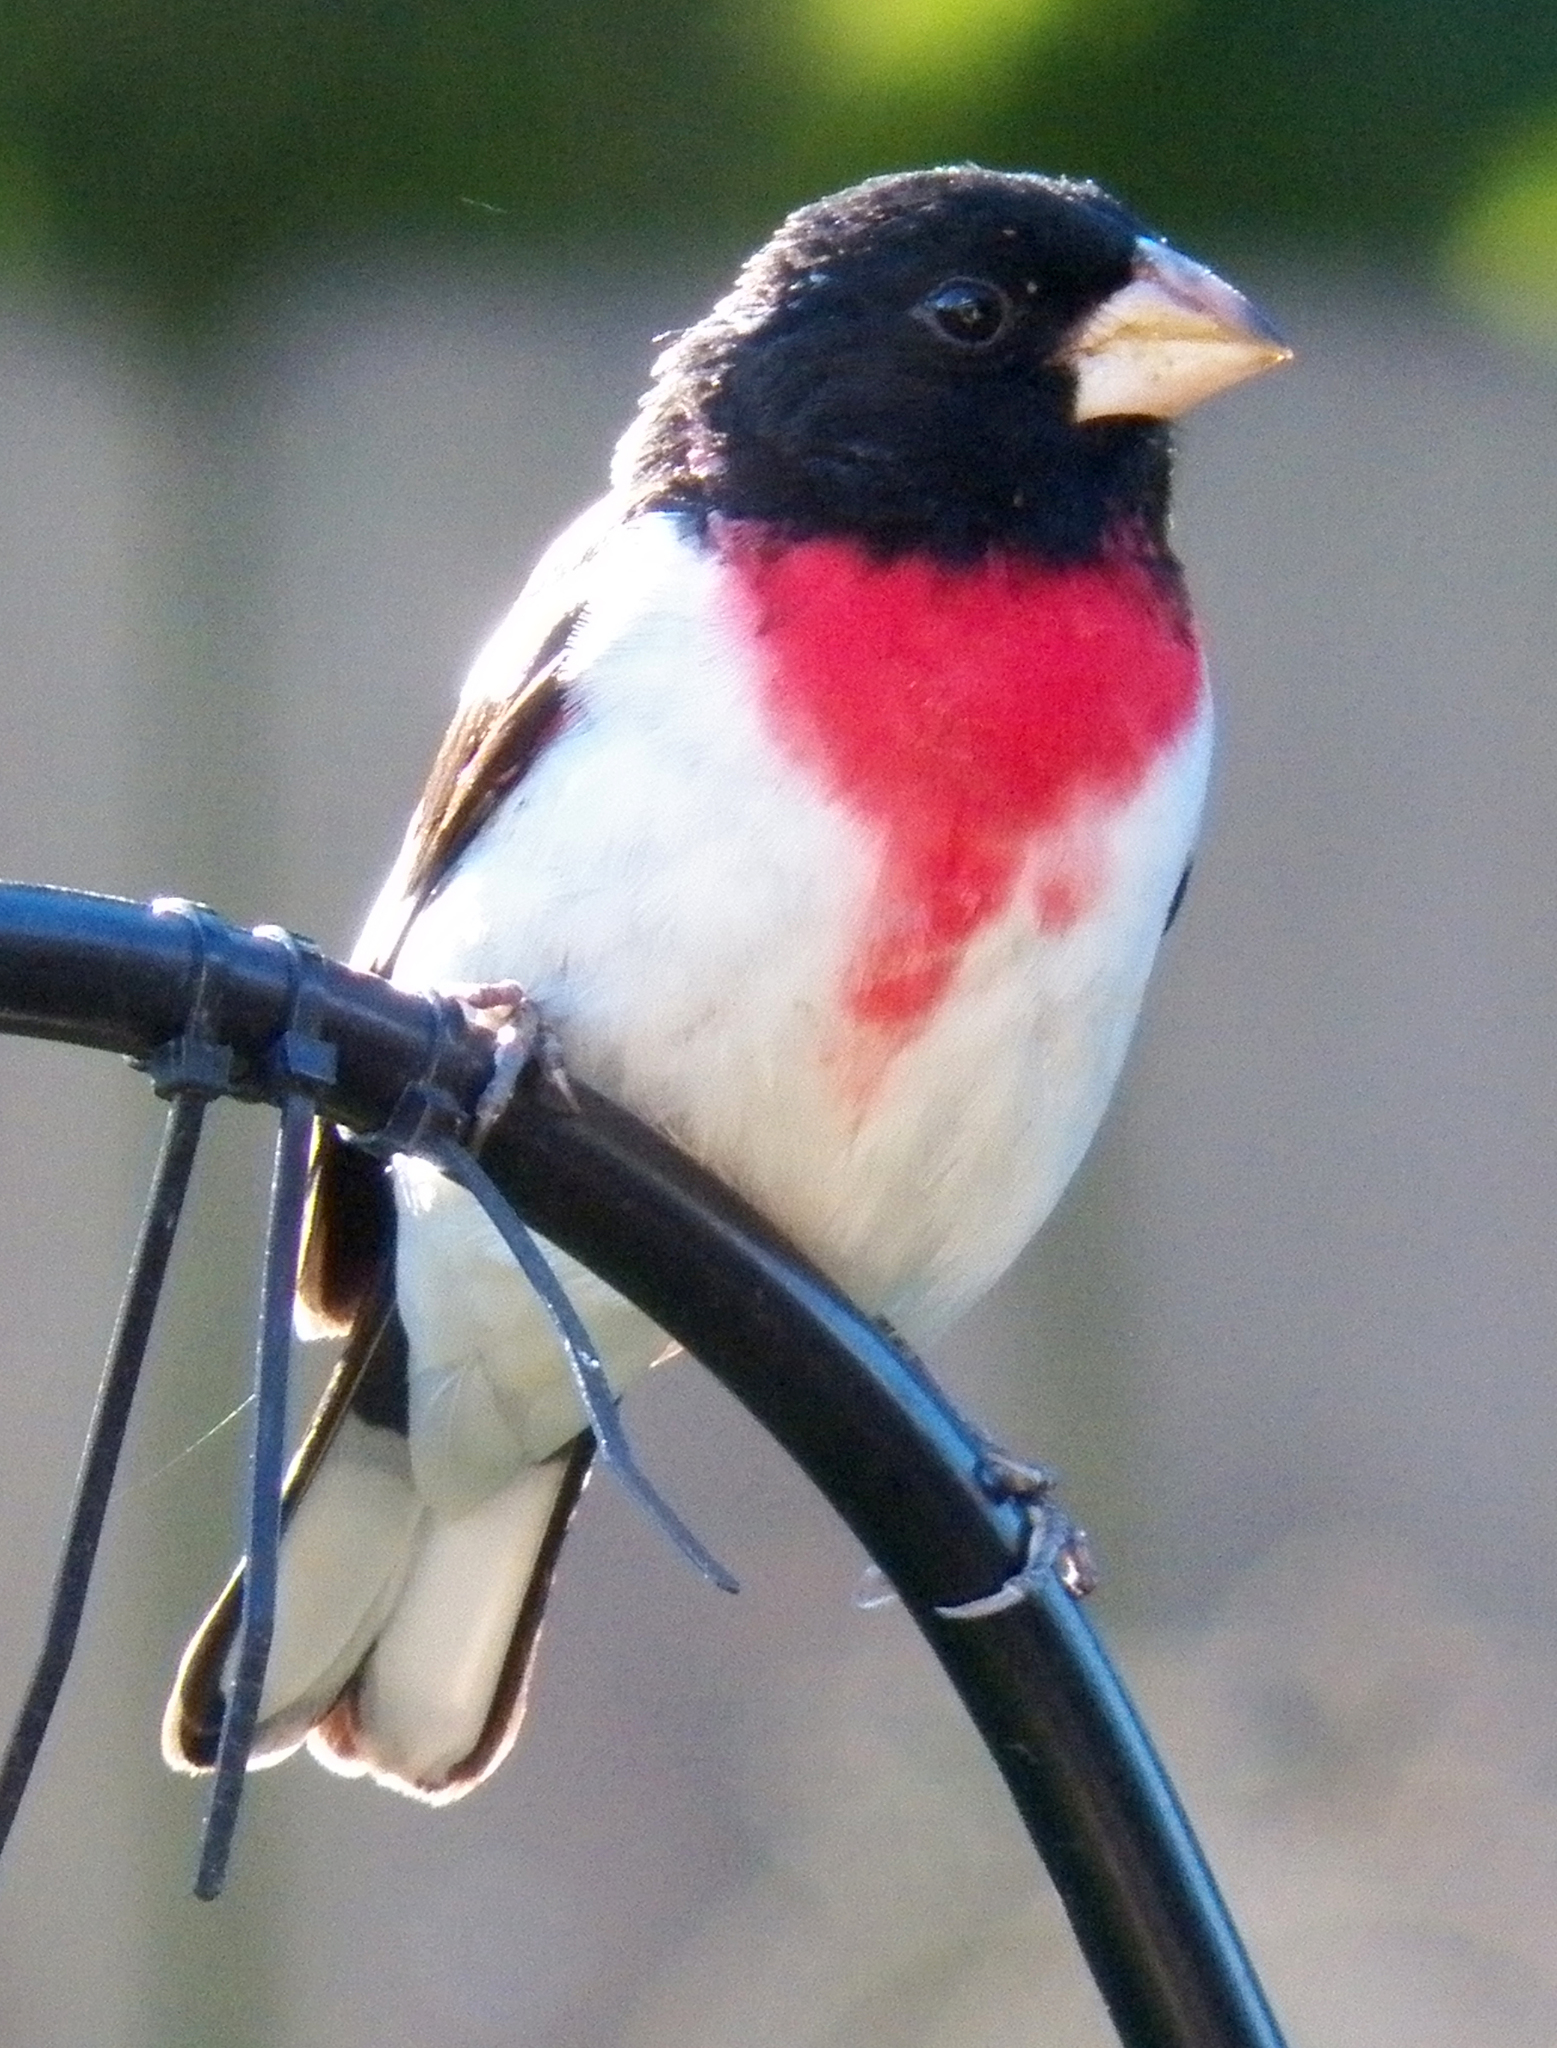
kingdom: Animalia
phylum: Chordata
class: Aves
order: Passeriformes
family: Cardinalidae
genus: Pheucticus
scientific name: Pheucticus ludovicianus
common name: Rose-breasted grosbeak
